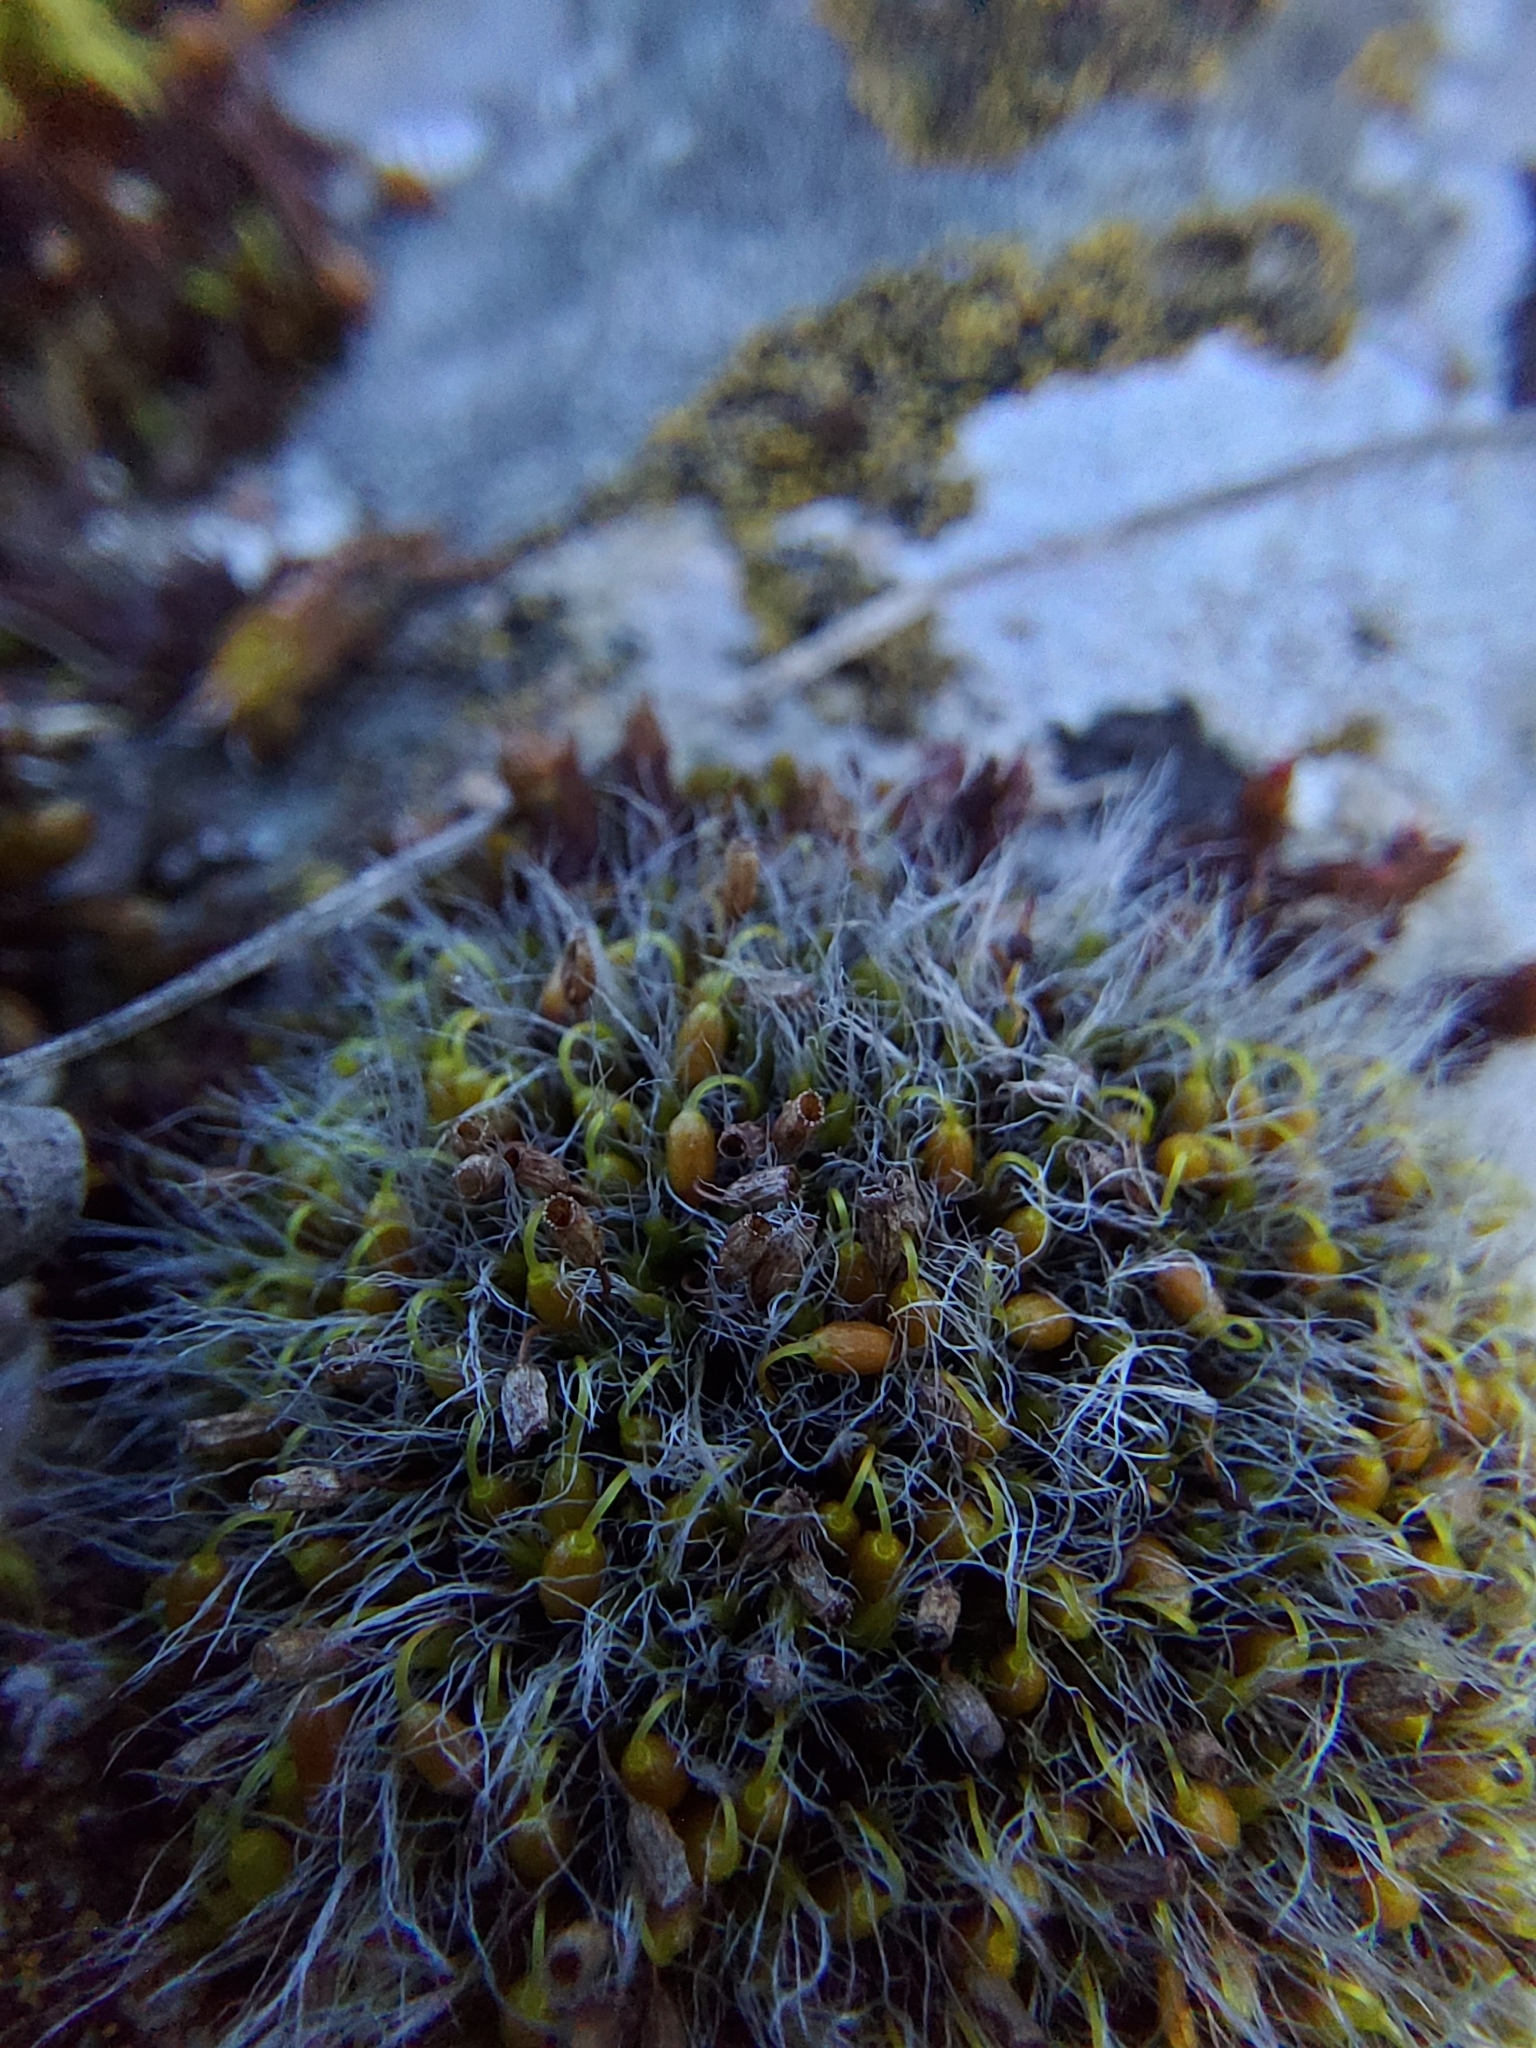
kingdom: Plantae
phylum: Bryophyta
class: Bryopsida
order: Grimmiales
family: Grimmiaceae
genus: Grimmia
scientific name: Grimmia pulvinata
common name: Grey-cushioned grimmia
